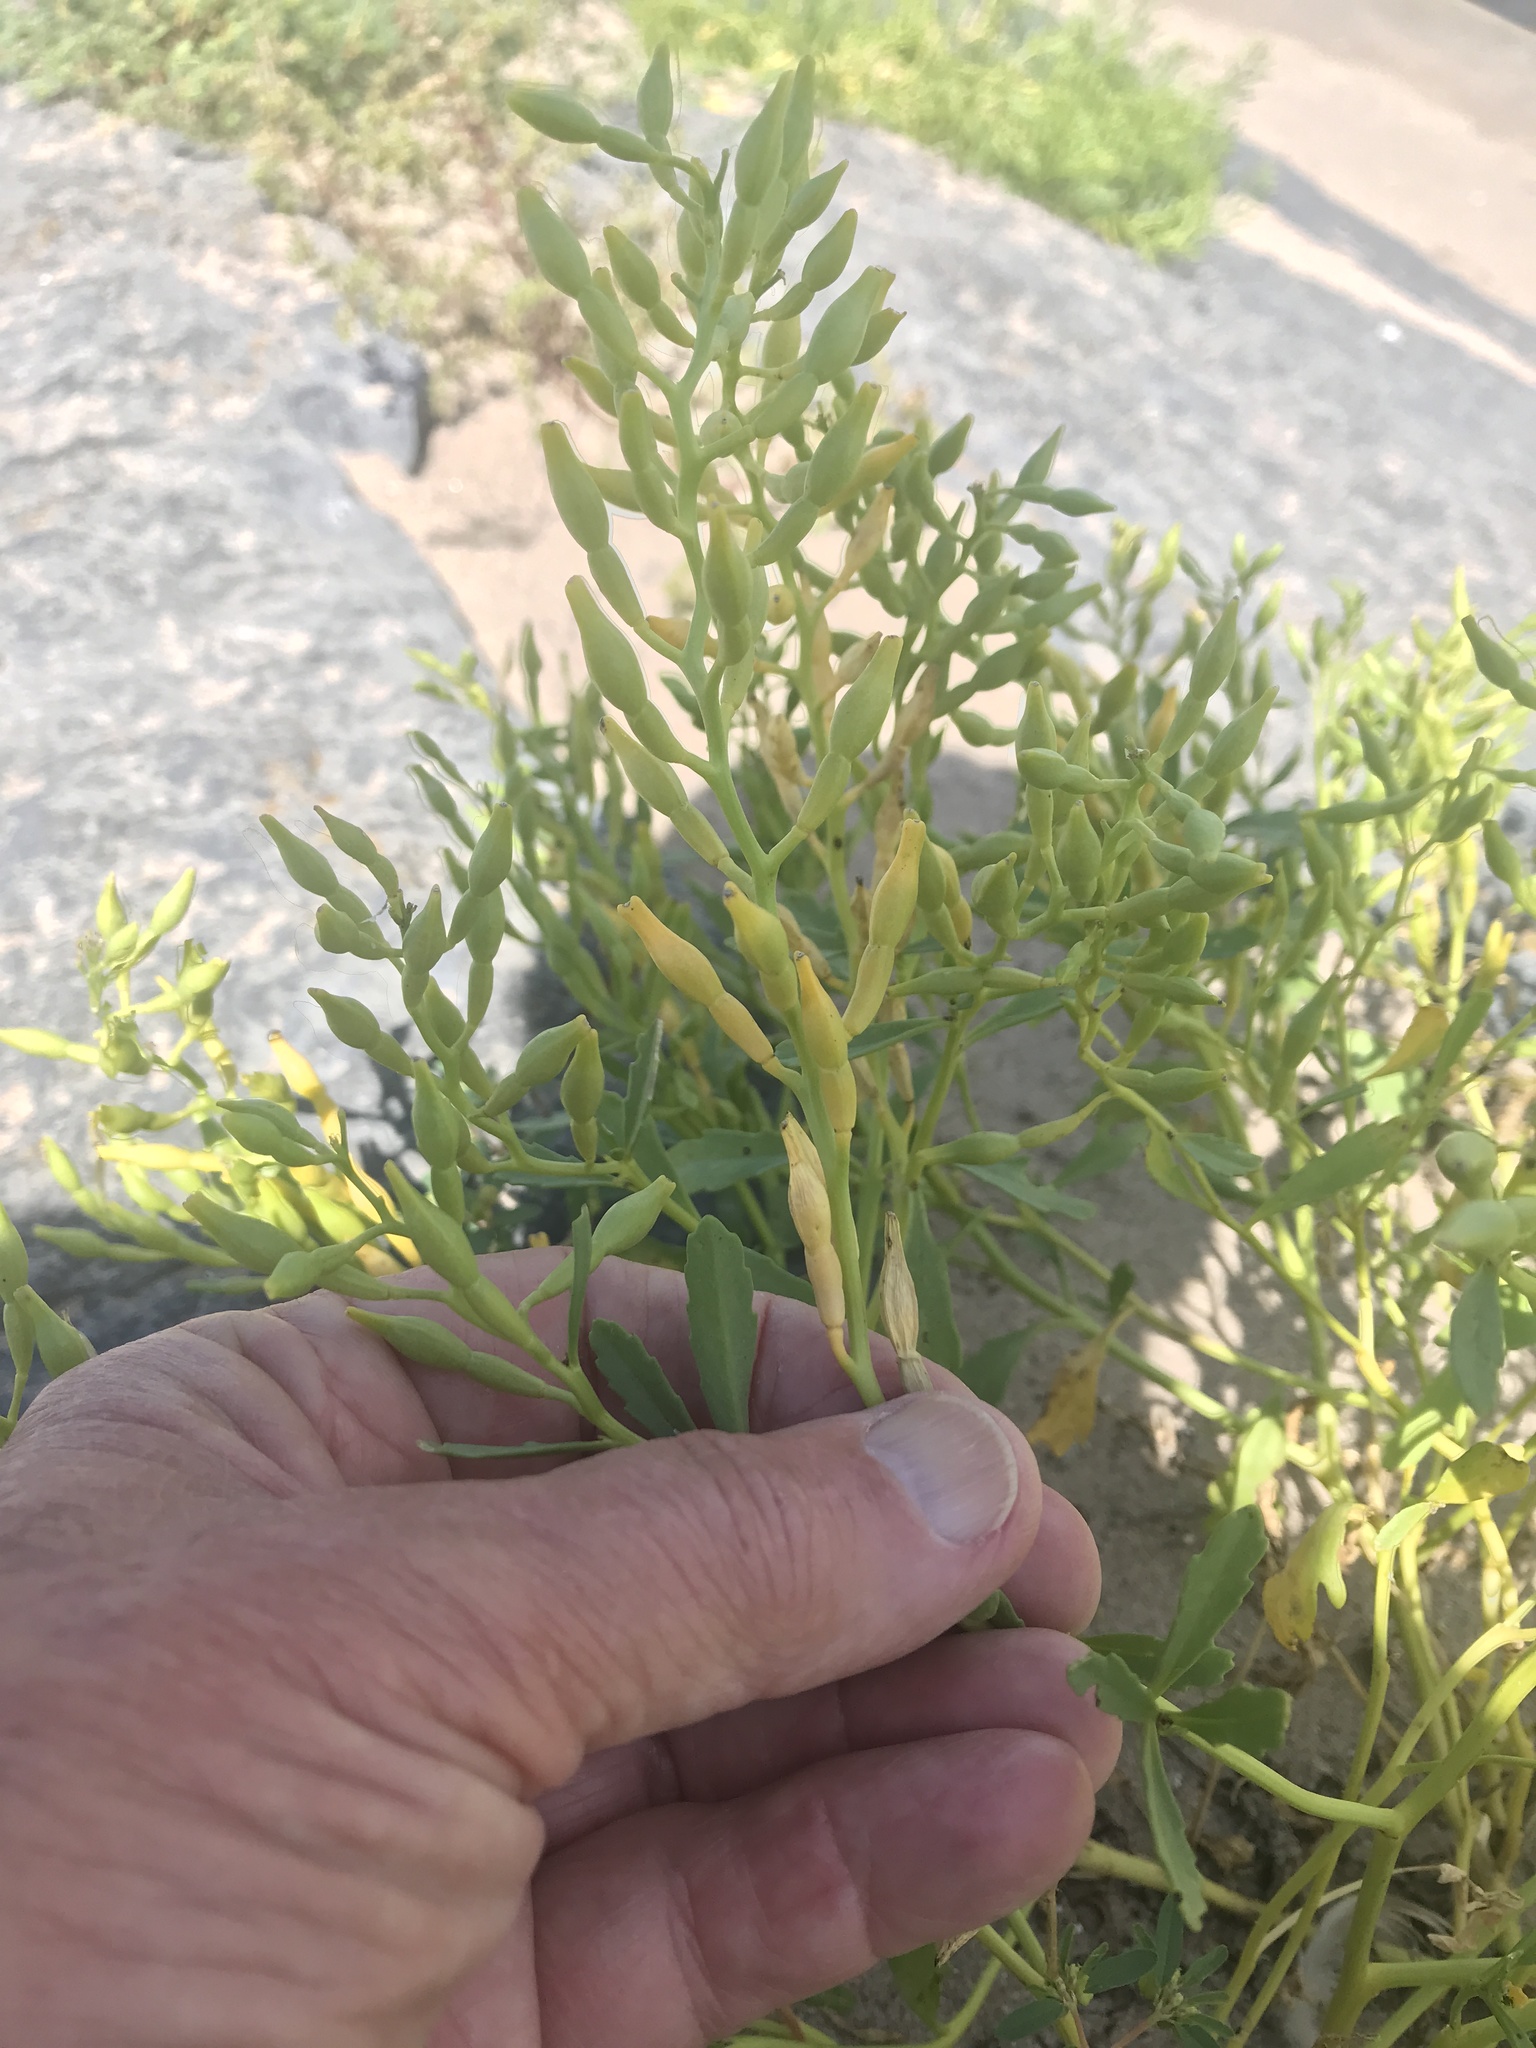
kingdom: Plantae
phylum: Tracheophyta
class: Magnoliopsida
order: Brassicales
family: Brassicaceae
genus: Cakile
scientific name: Cakile edentula
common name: American sea rocket
